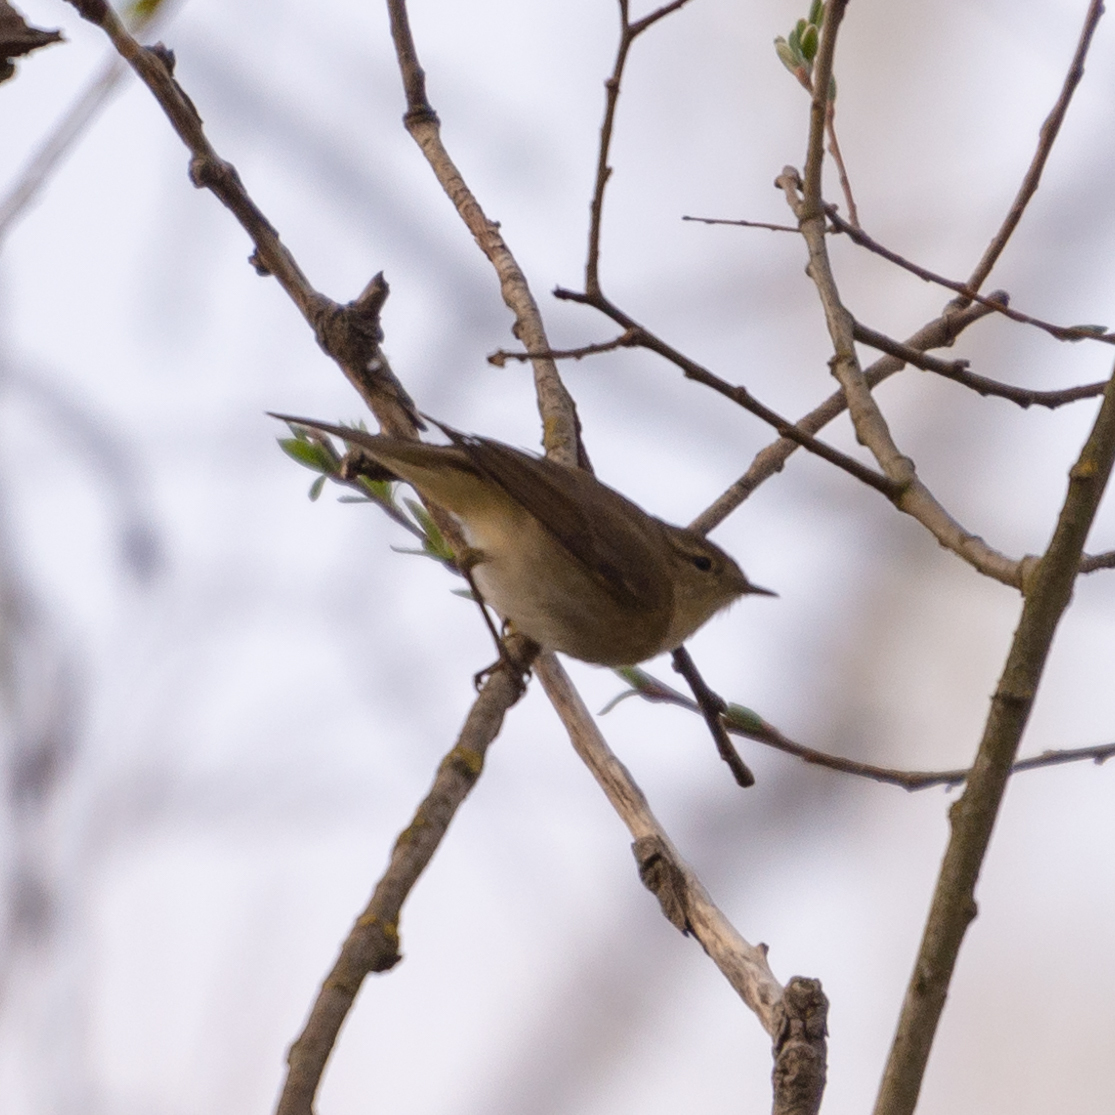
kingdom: Animalia
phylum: Chordata
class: Aves
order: Passeriformes
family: Phylloscopidae
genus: Phylloscopus
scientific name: Phylloscopus ibericus
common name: Iberian chiffchaff
